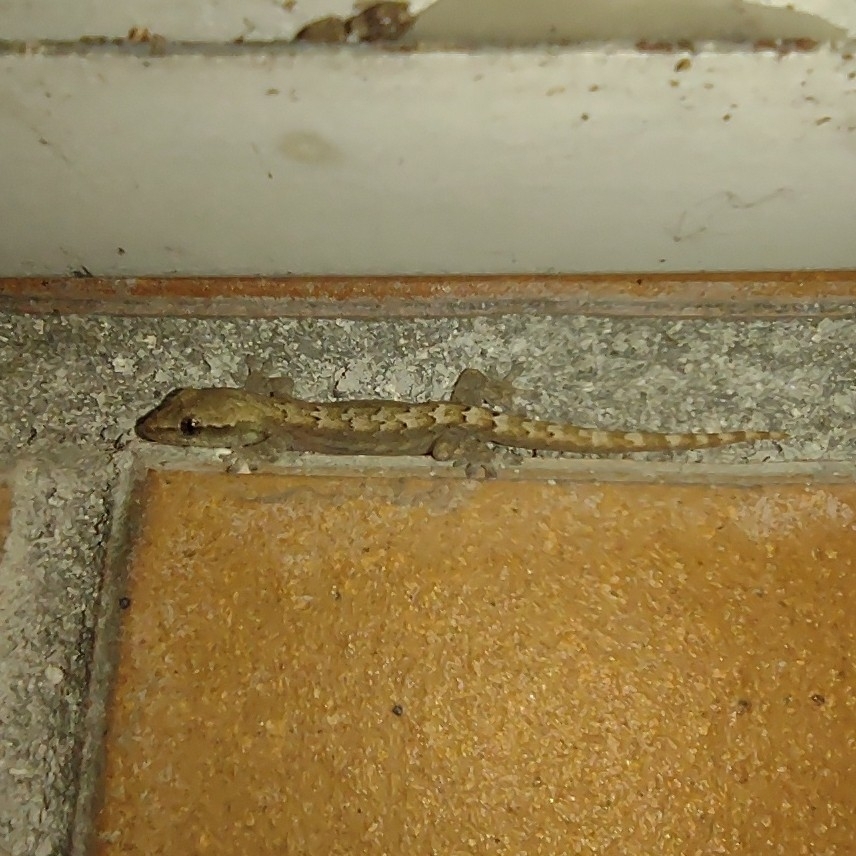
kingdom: Animalia
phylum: Chordata
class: Squamata
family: Gekkonidae
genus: Lepidodactylus
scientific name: Lepidodactylus lugubris
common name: Mourning gecko
